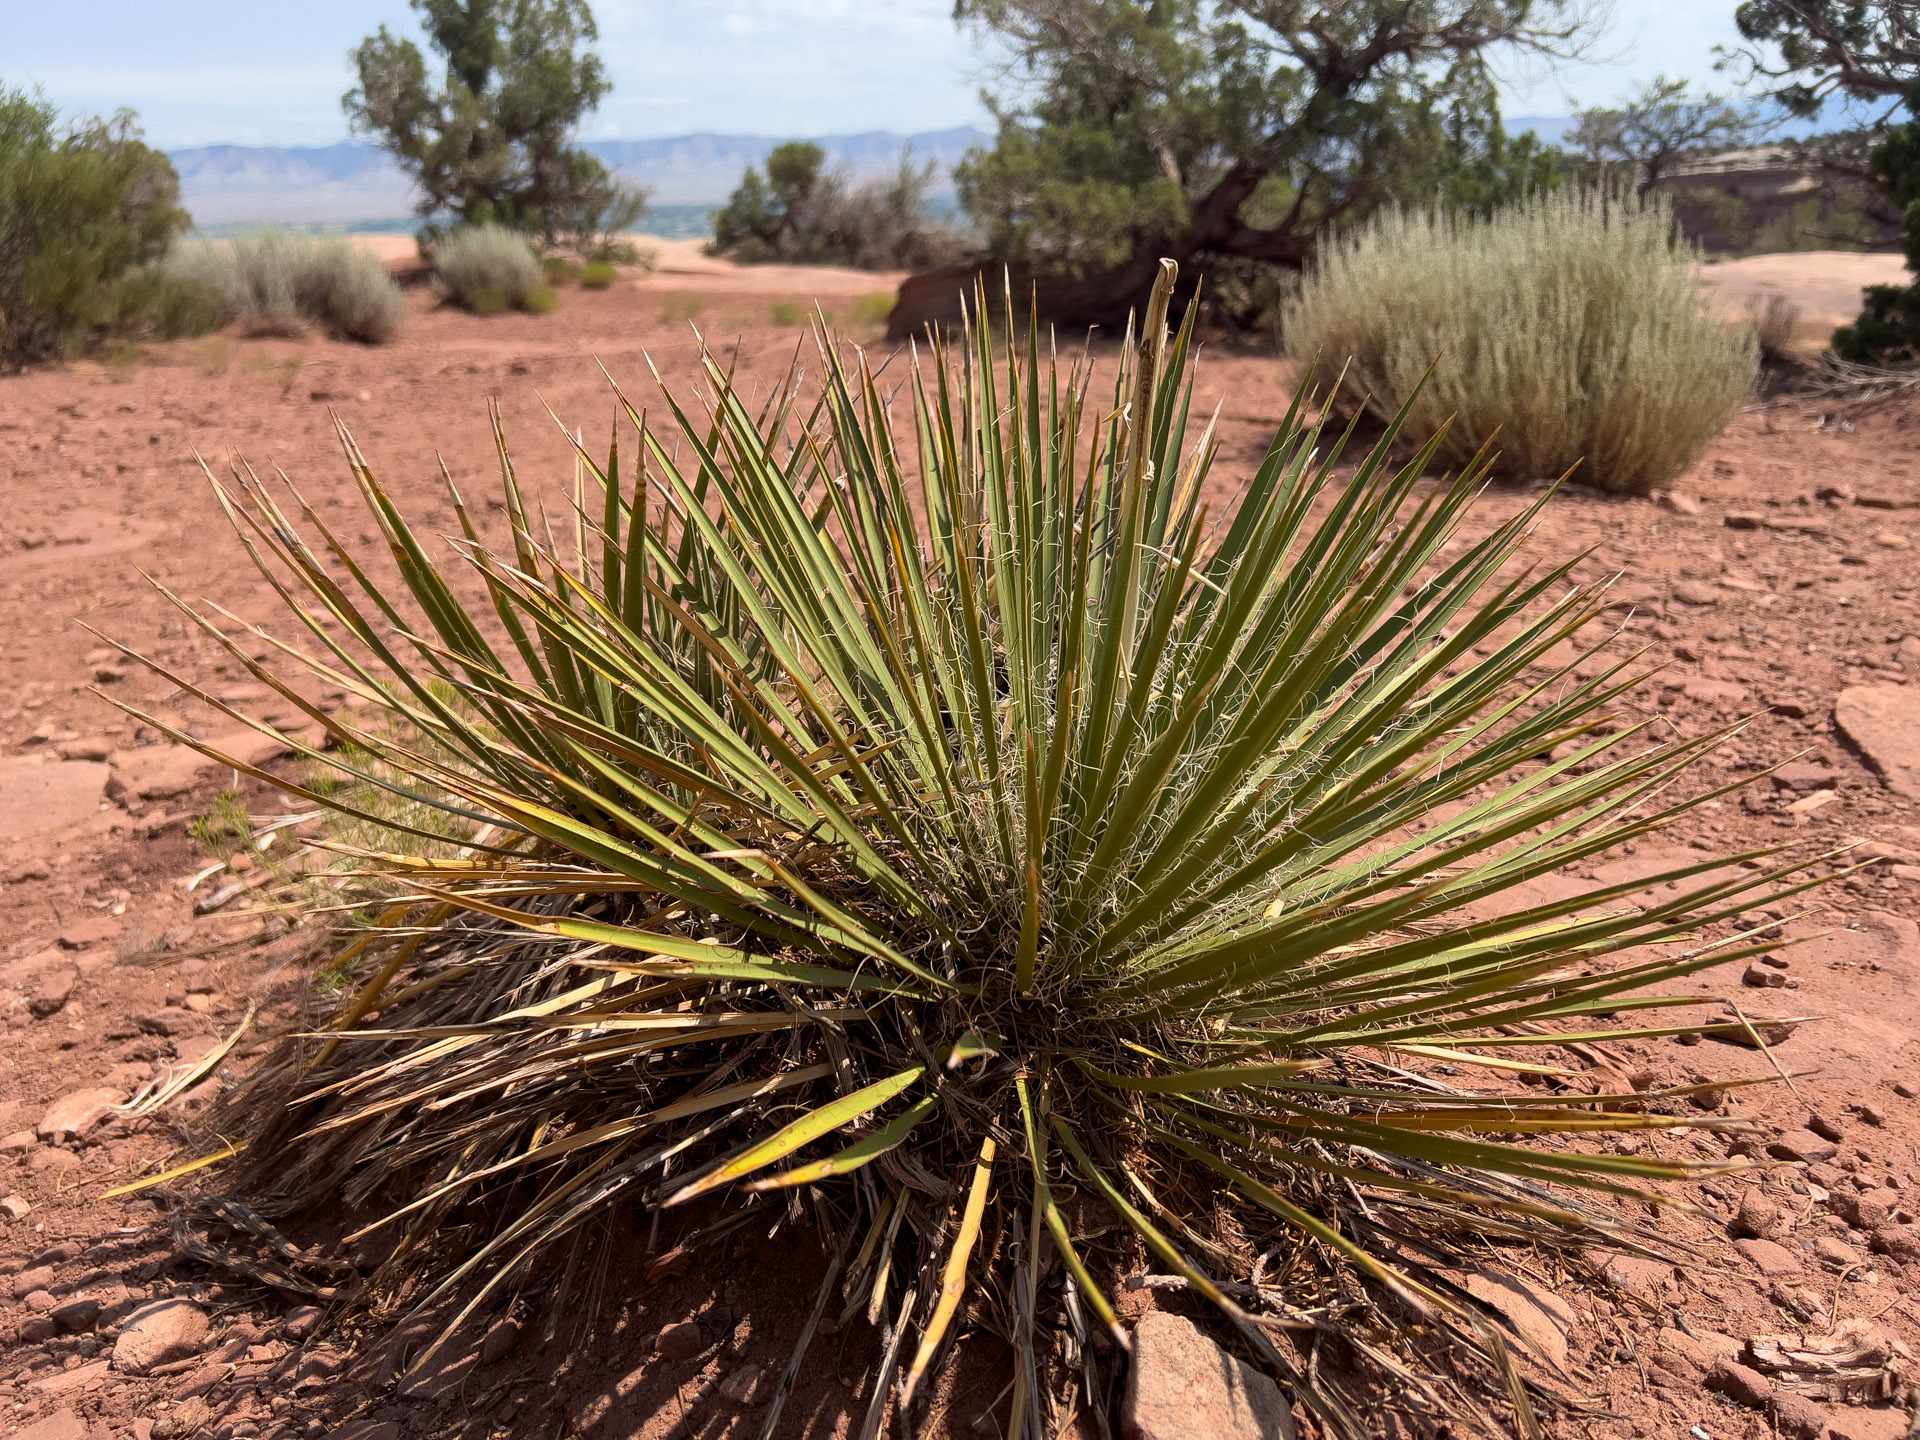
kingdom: Plantae
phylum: Tracheophyta
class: Liliopsida
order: Asparagales
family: Asparagaceae
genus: Yucca
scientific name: Yucca angustissima
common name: Narrowleaf yucca
